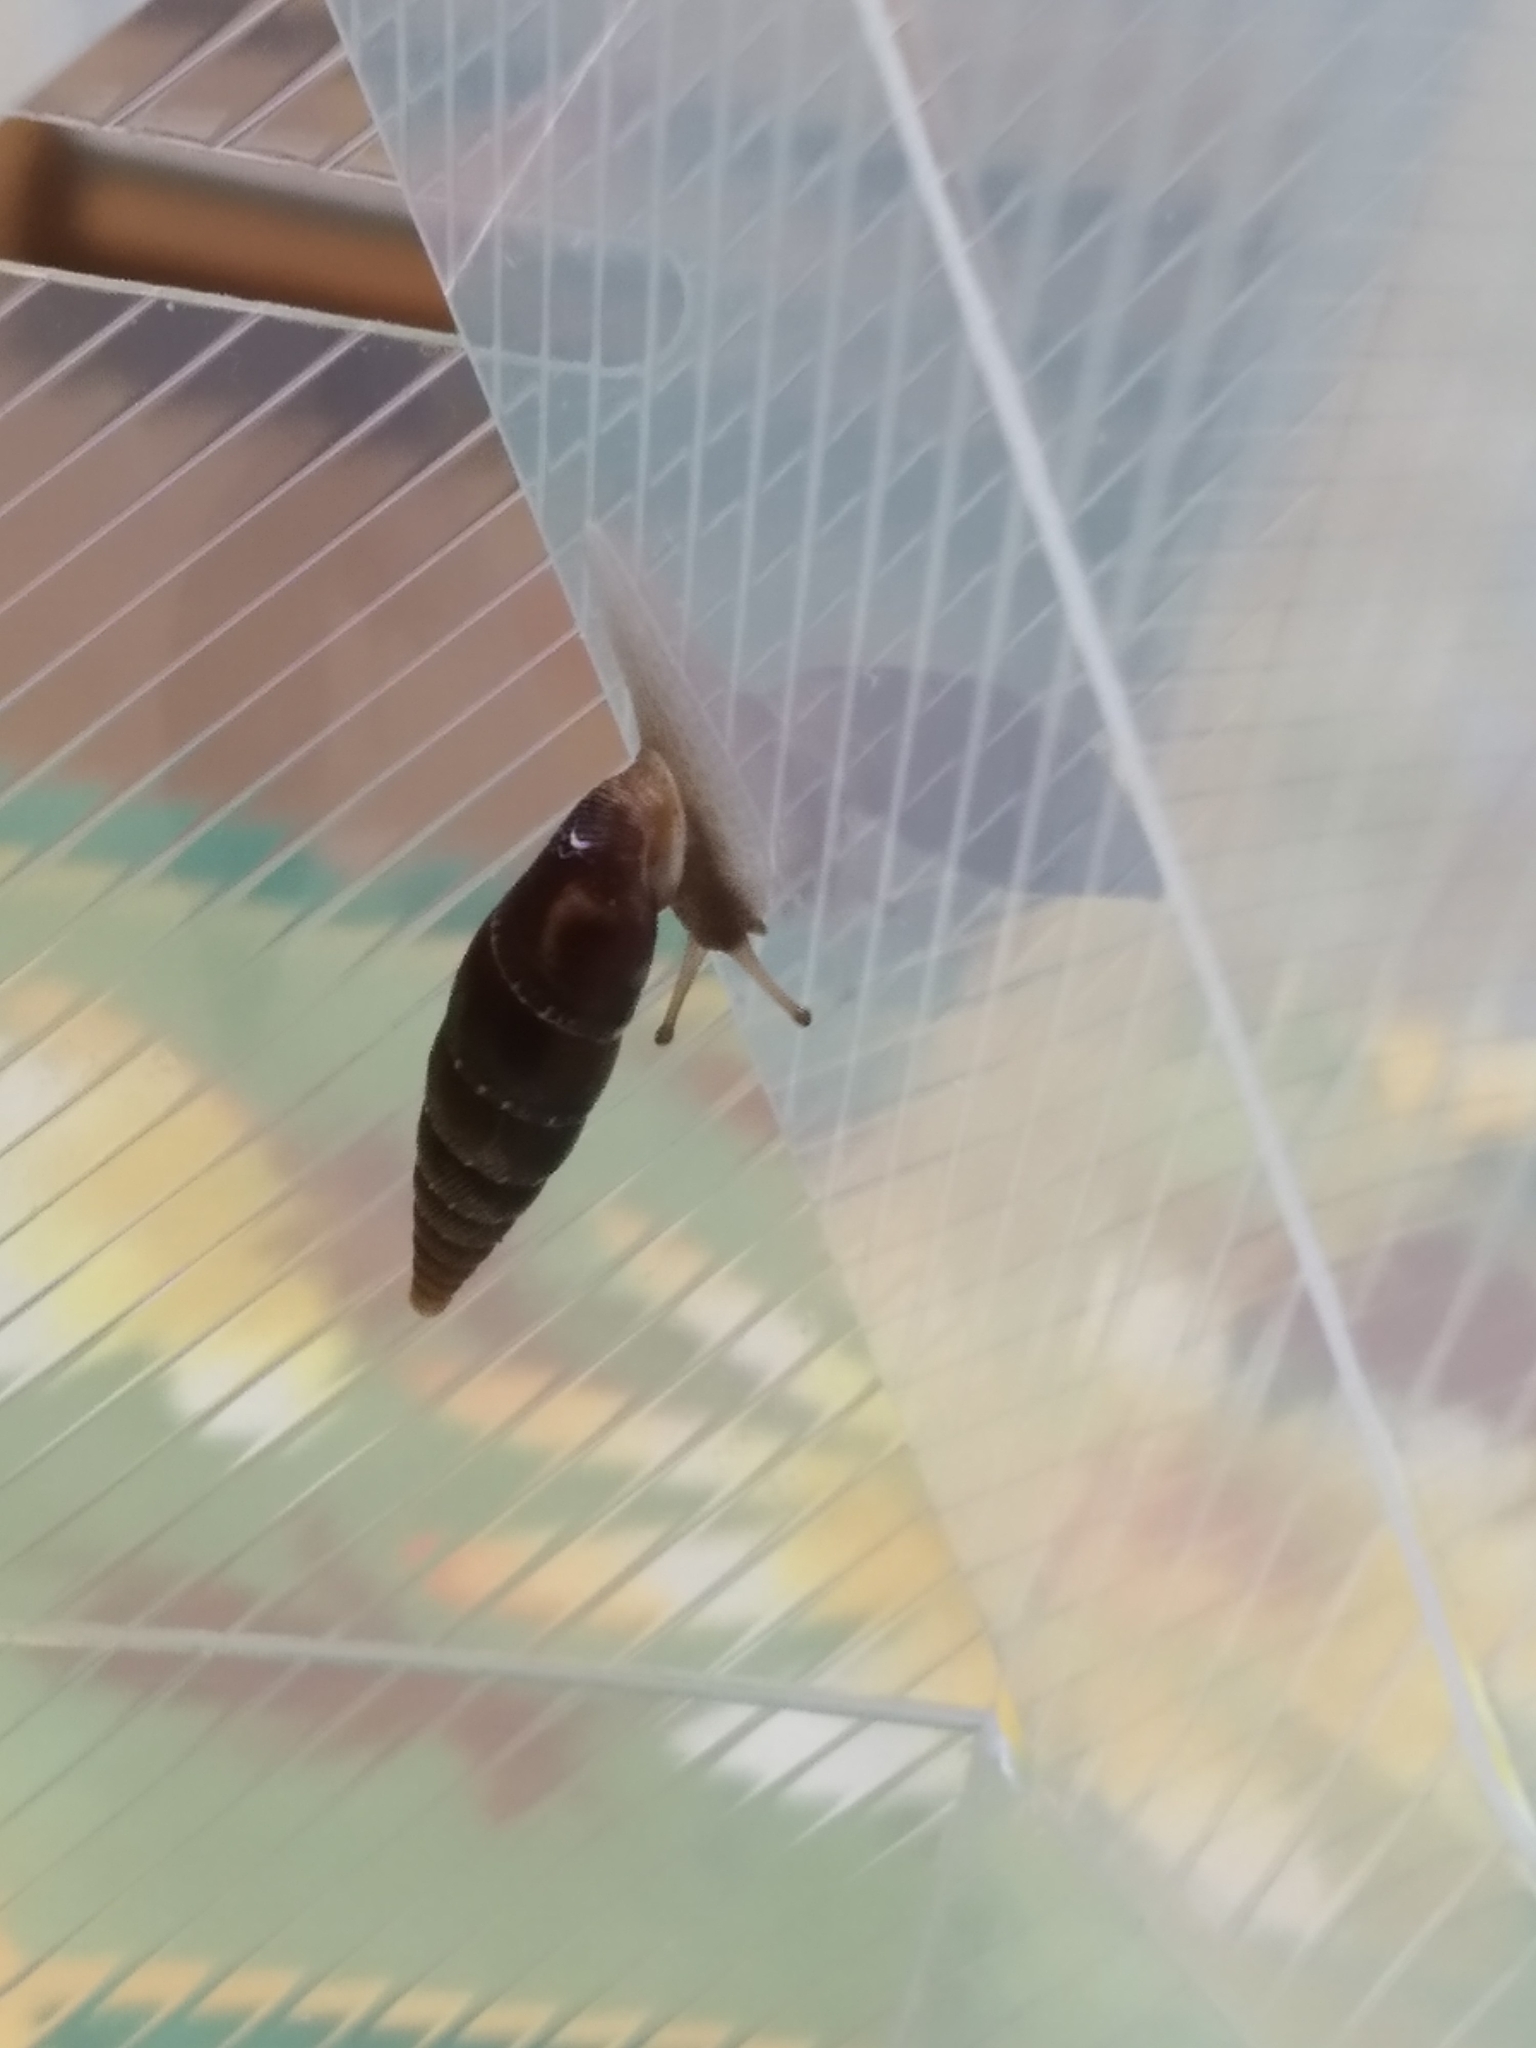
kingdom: Animalia
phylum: Mollusca
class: Gastropoda
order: Stylommatophora
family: Clausiliidae
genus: Charpentieria
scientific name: Charpentieria itala
